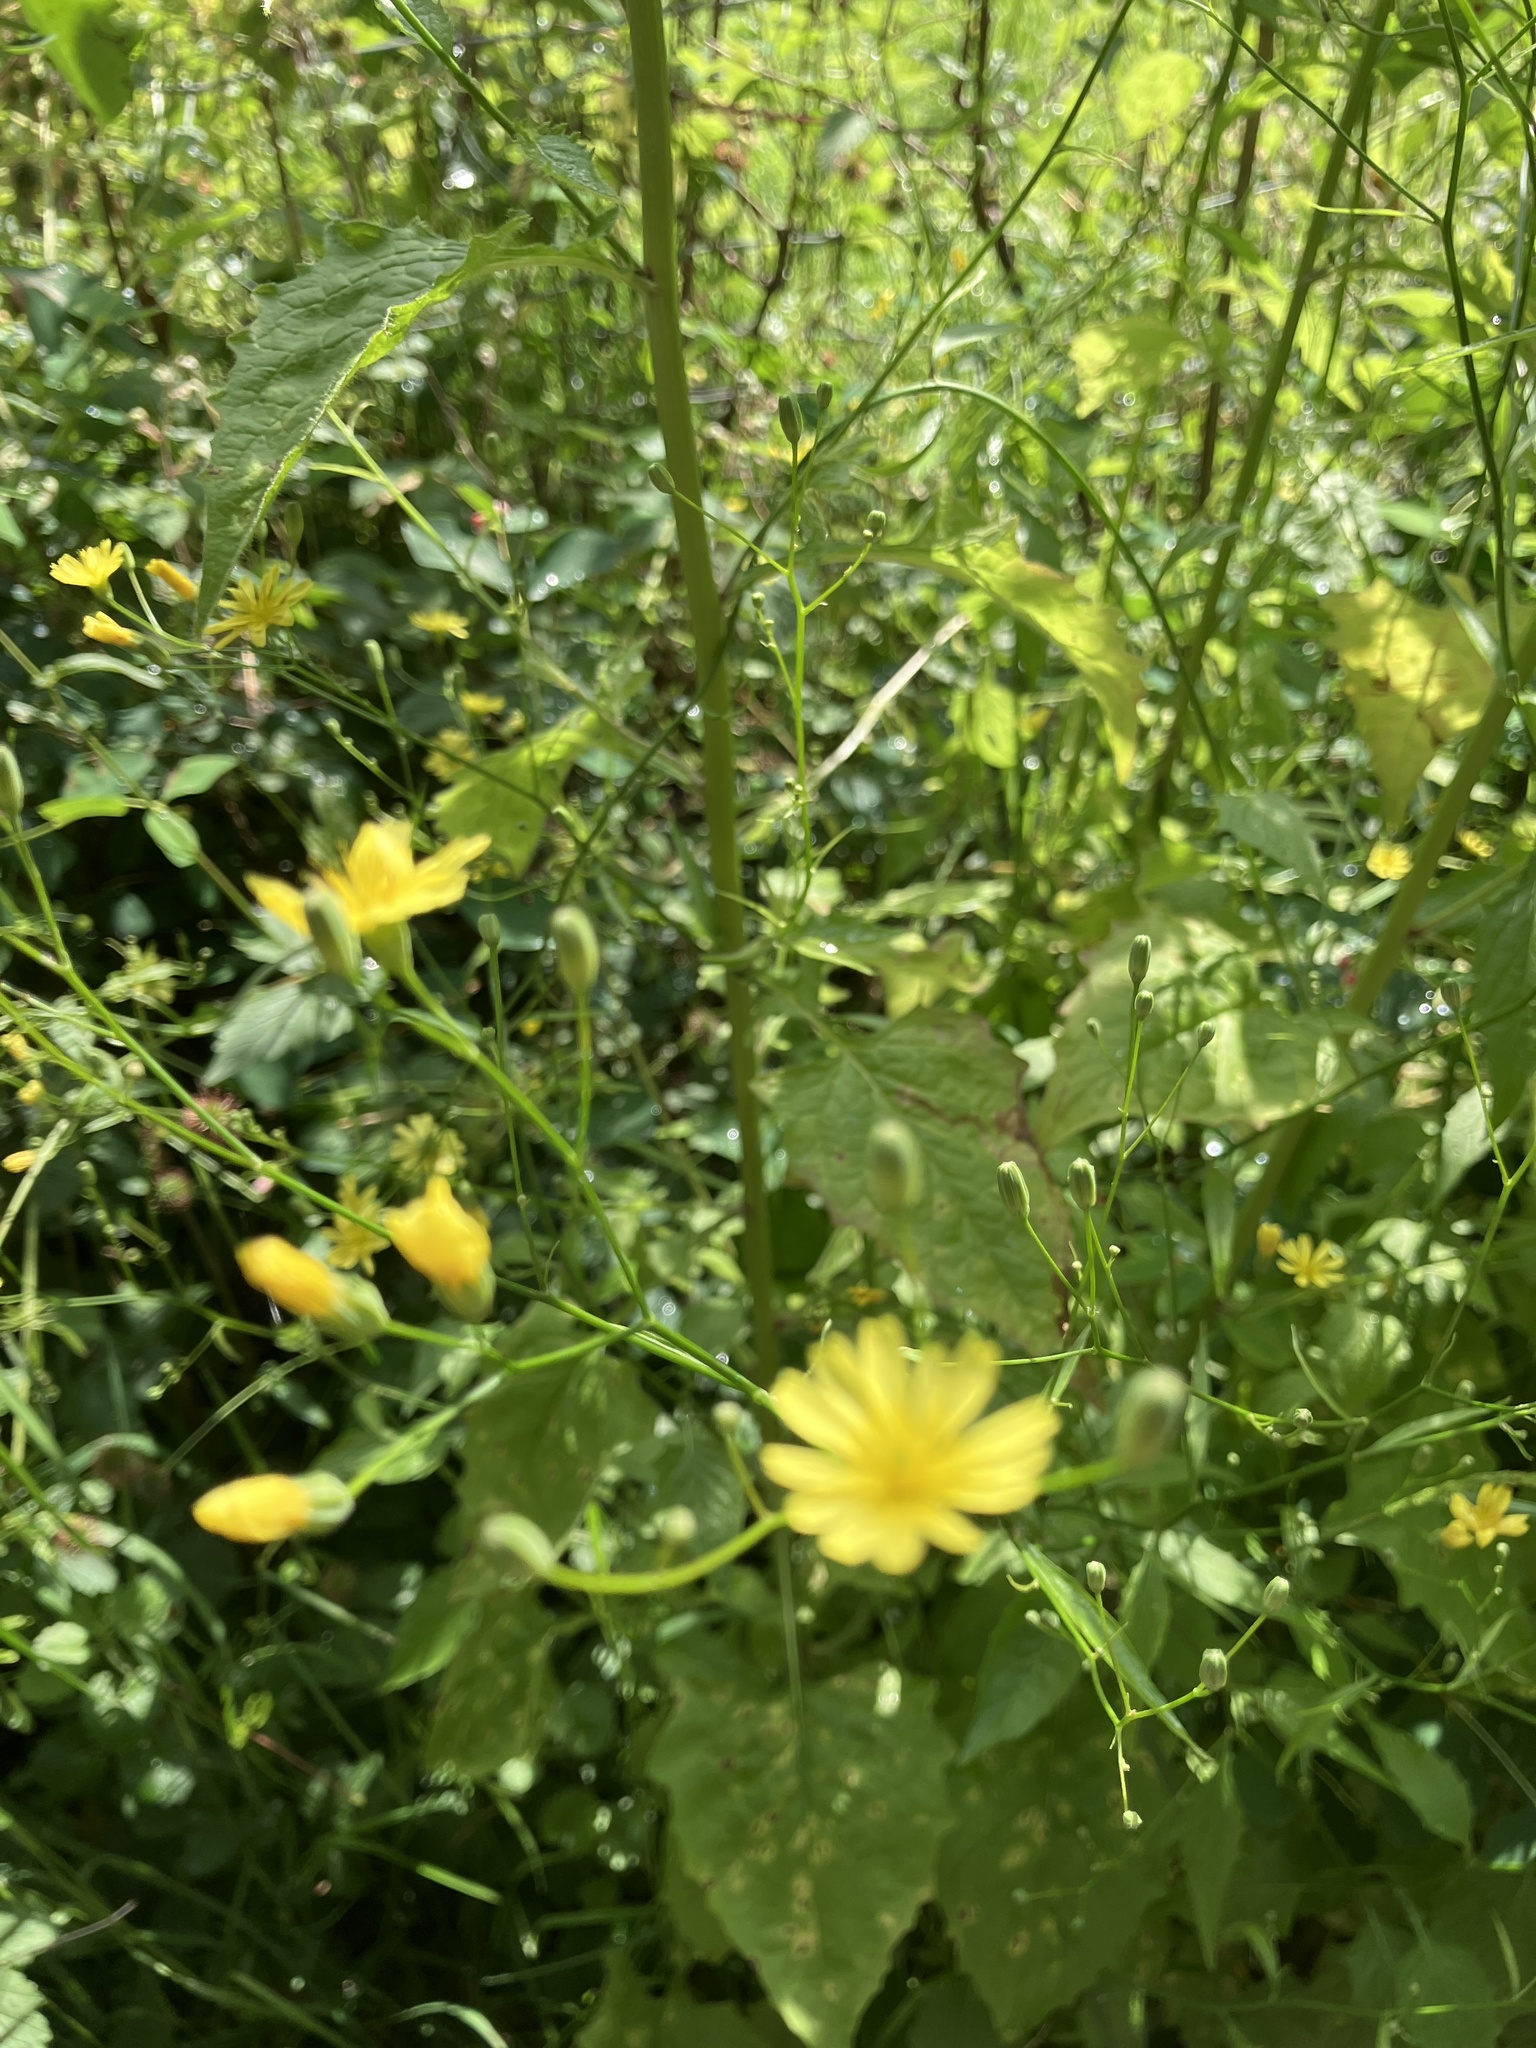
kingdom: Plantae
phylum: Tracheophyta
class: Magnoliopsida
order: Asterales
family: Asteraceae
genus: Lapsana
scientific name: Lapsana communis
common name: Nipplewort
